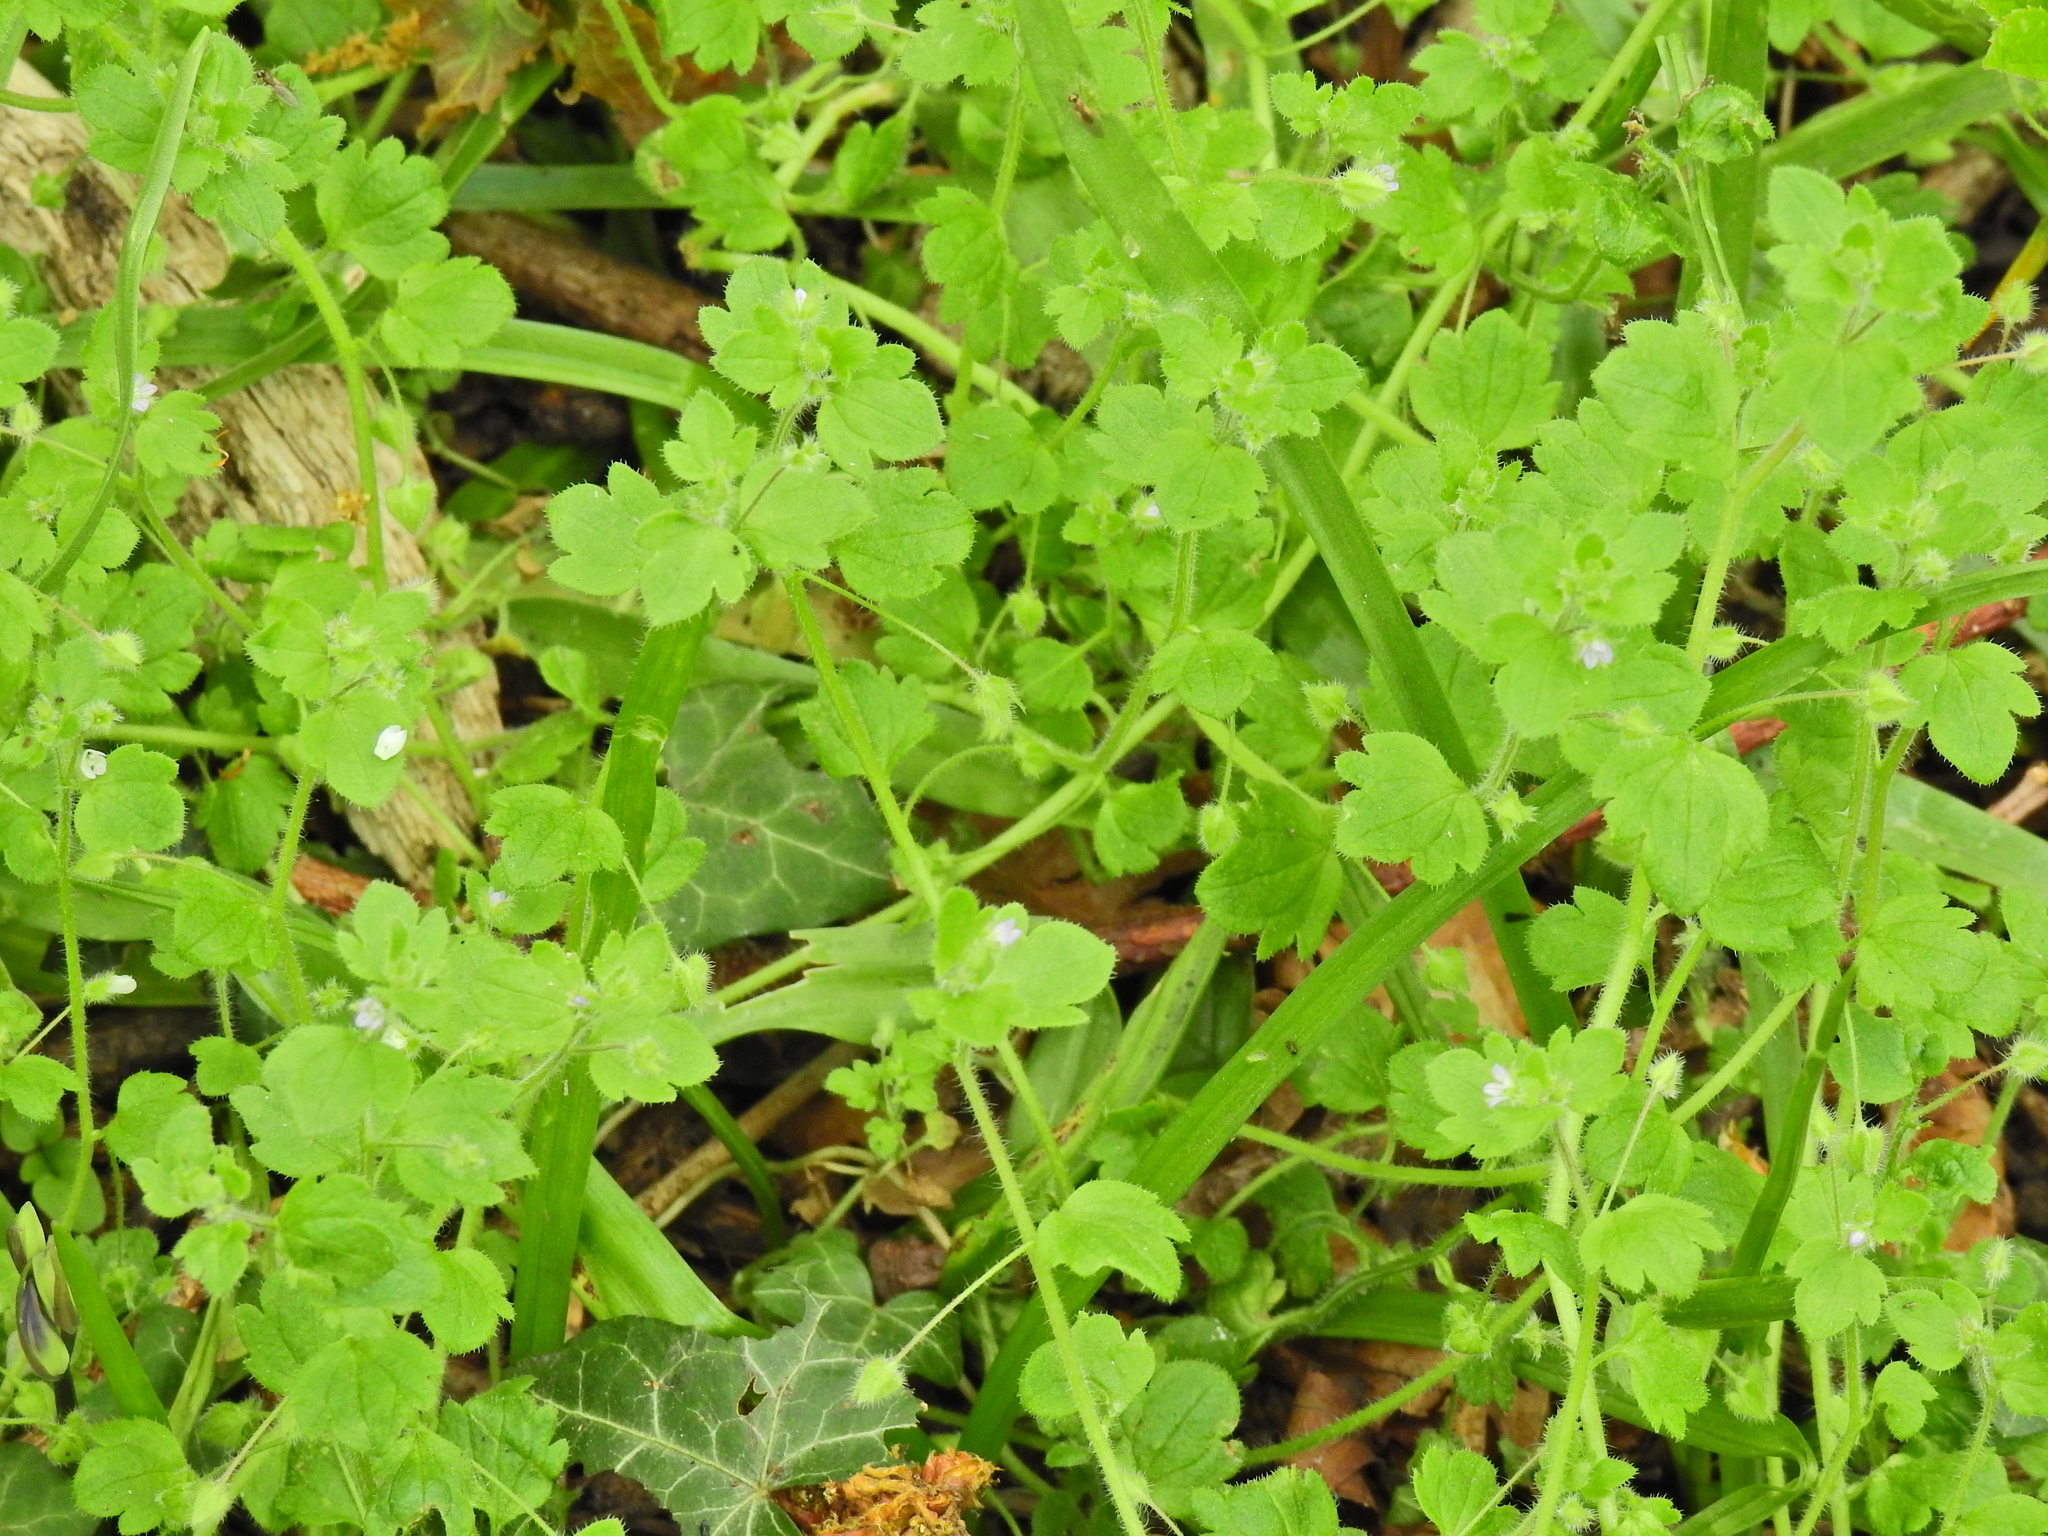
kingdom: Plantae
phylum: Tracheophyta
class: Magnoliopsida
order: Lamiales
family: Plantaginaceae
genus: Veronica
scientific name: Veronica sublobata
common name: False ivy-leaved speedwell
